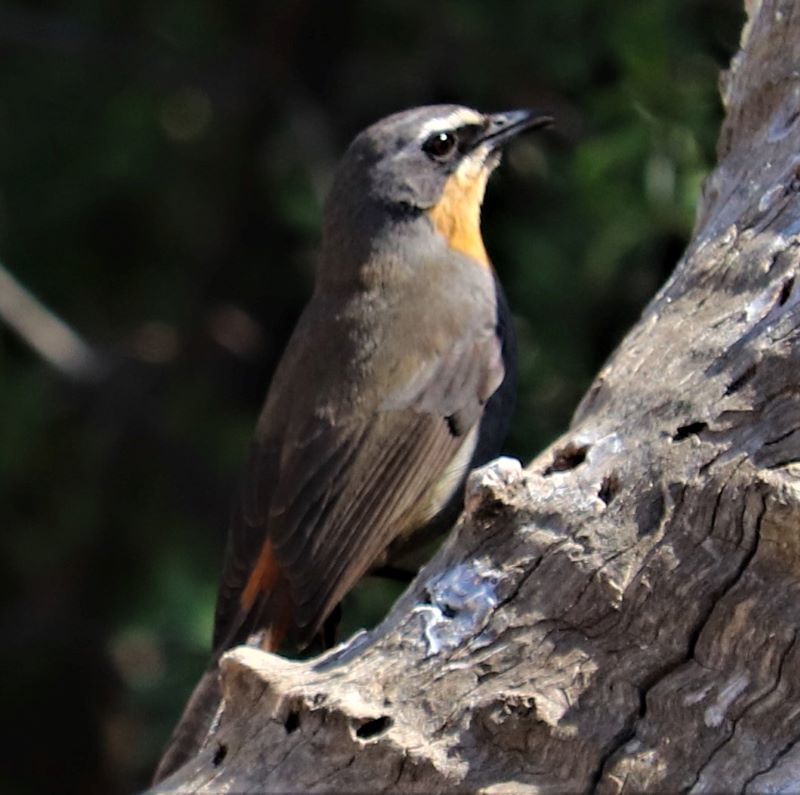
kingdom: Animalia
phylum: Chordata
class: Aves
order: Passeriformes
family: Muscicapidae
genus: Cossypha
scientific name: Cossypha caffra
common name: Cape robin-chat
